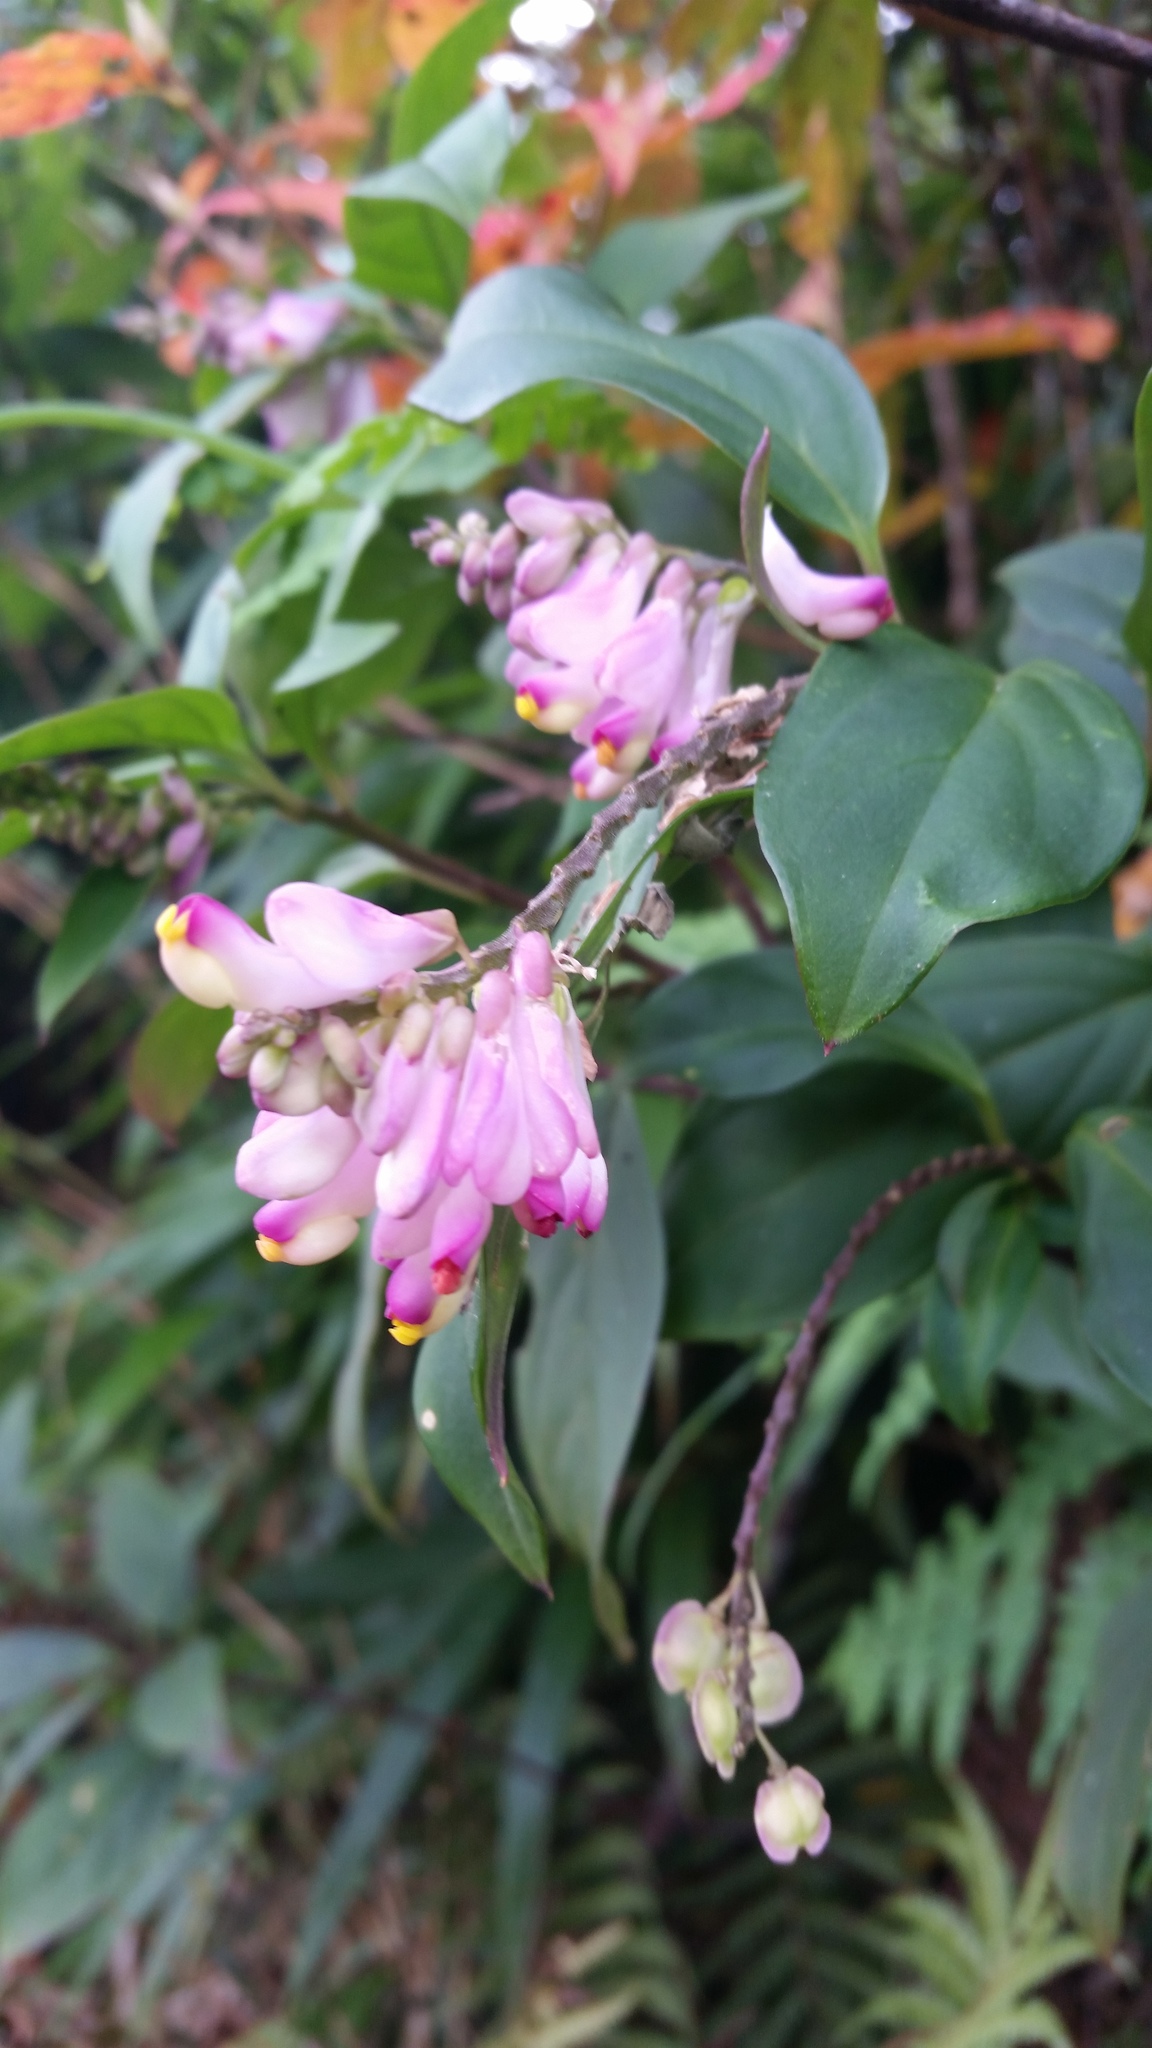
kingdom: Plantae
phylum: Tracheophyta
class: Magnoliopsida
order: Fabales
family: Polygalaceae
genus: Polygala
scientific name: Polygala karensium
